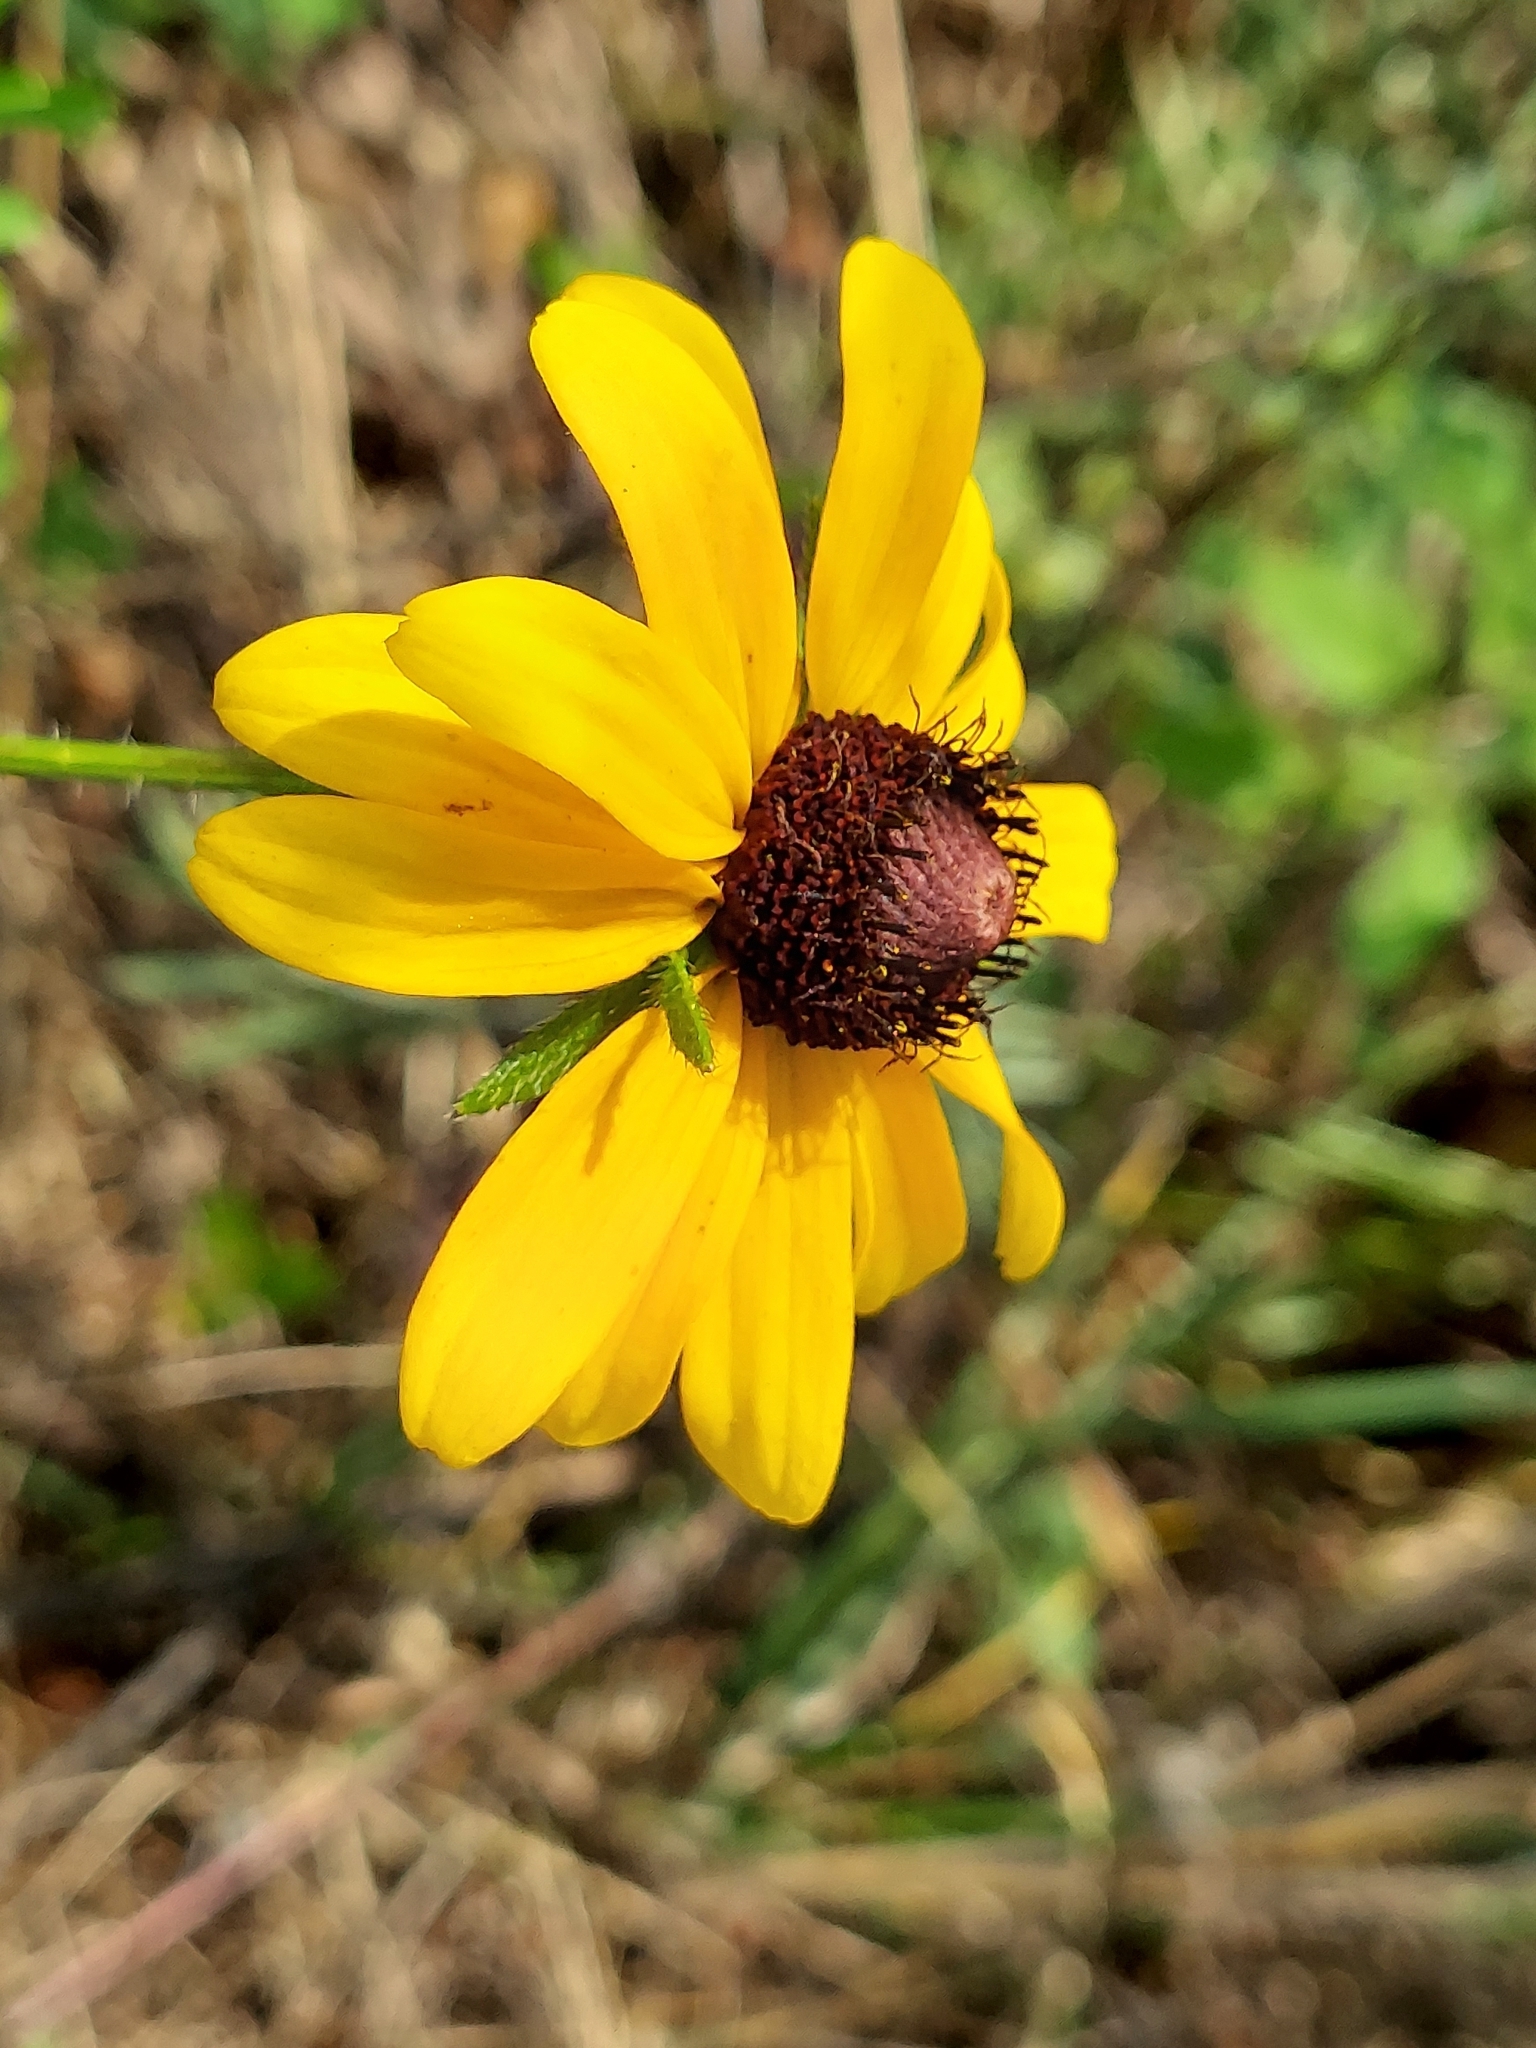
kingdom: Plantae
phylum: Tracheophyta
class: Magnoliopsida
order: Asterales
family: Asteraceae
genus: Rudbeckia
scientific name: Rudbeckia hirta
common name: Black-eyed-susan
